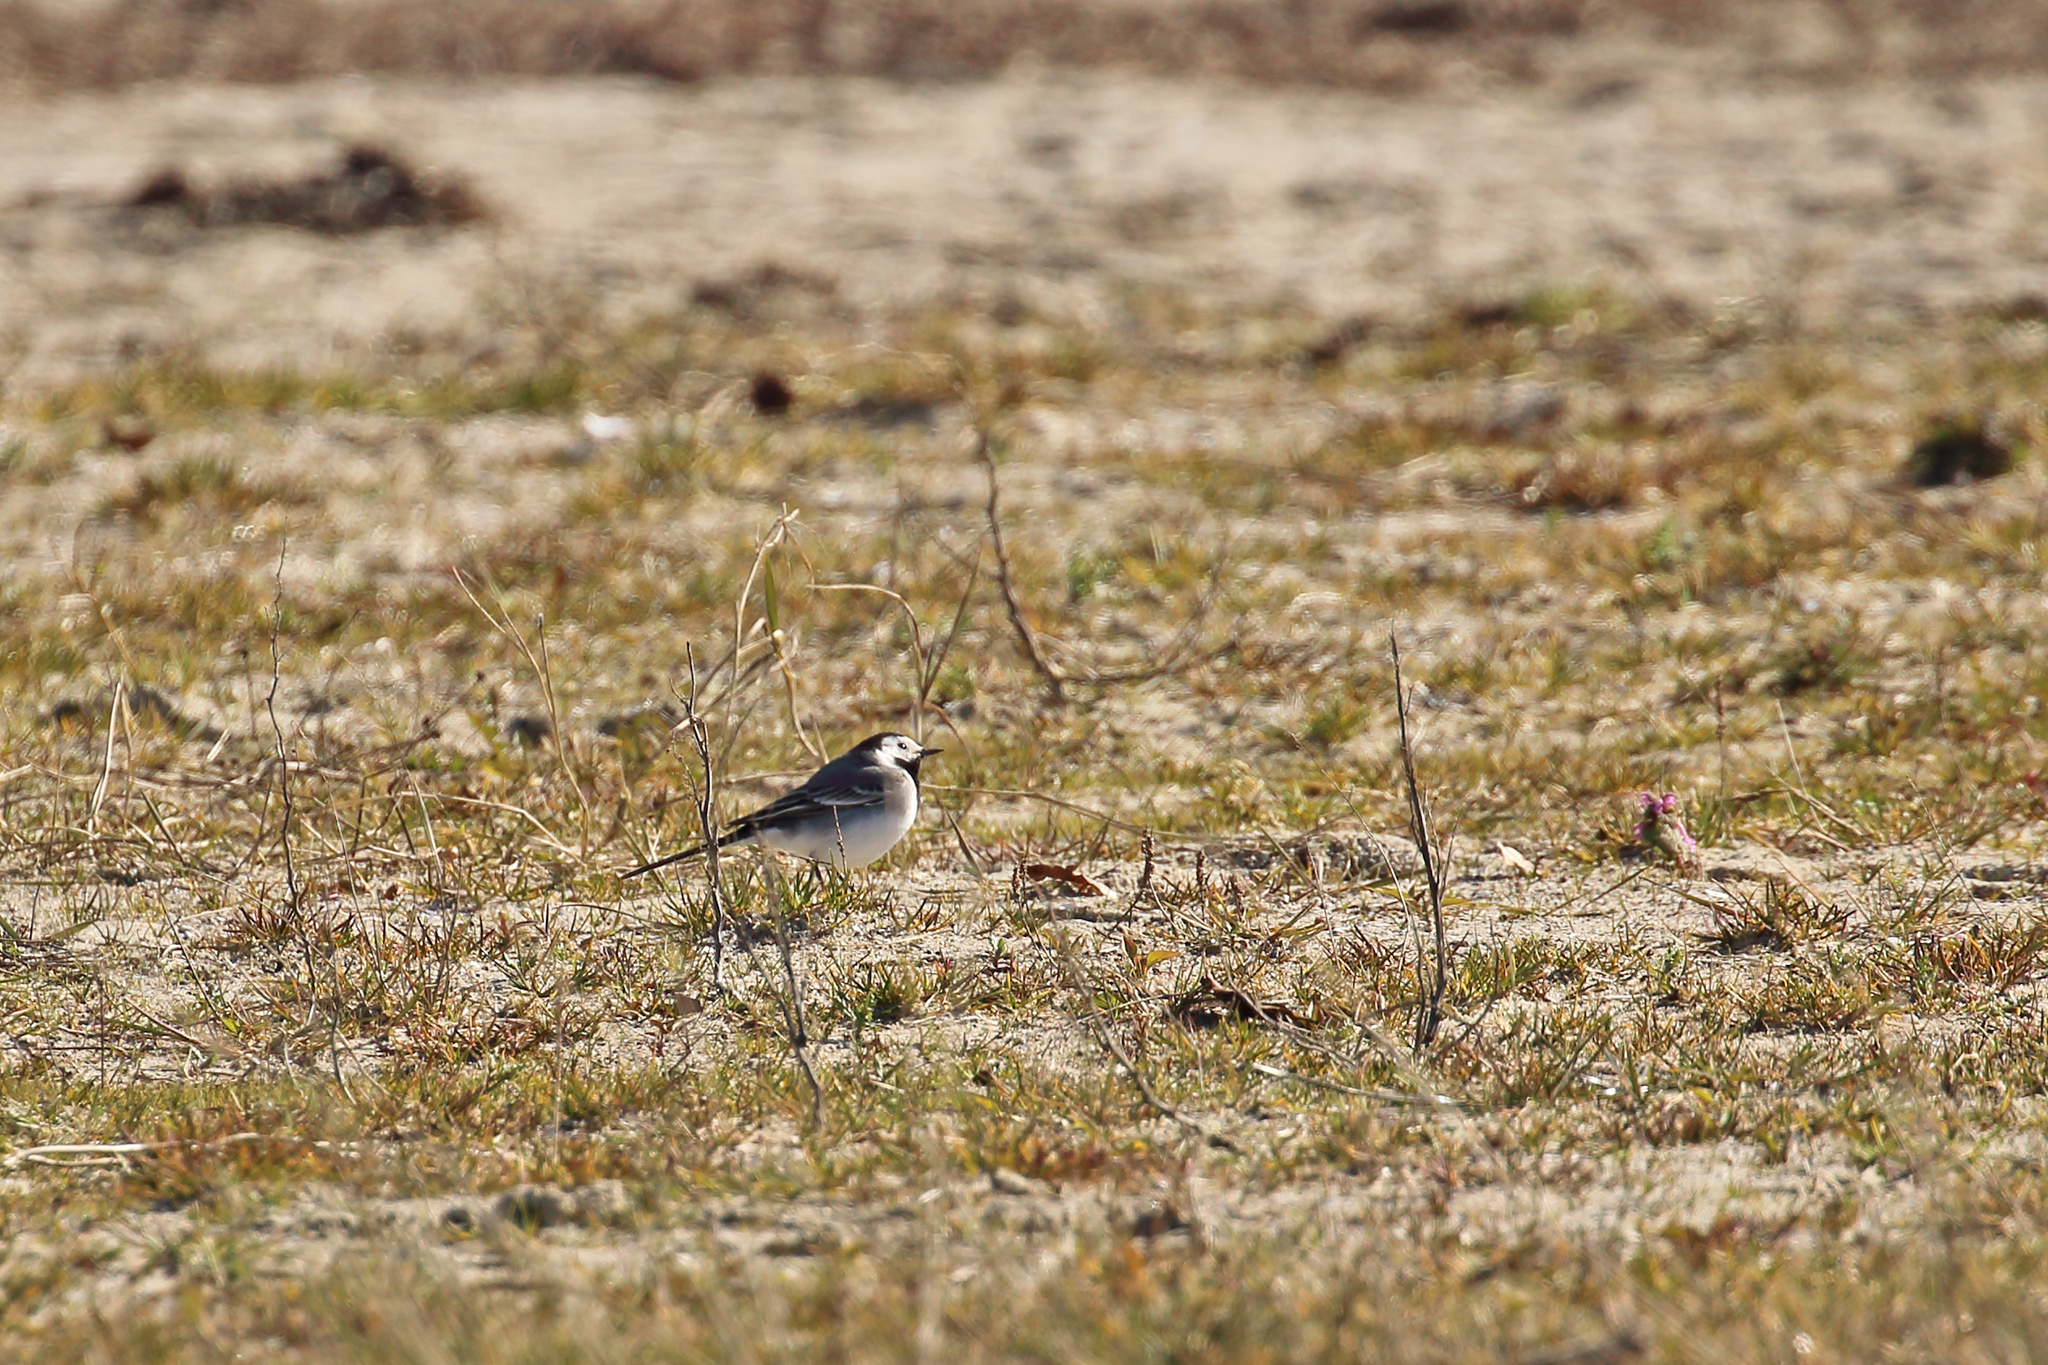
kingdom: Animalia
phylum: Chordata
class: Aves
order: Passeriformes
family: Motacillidae
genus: Motacilla
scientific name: Motacilla alba
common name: White wagtail
